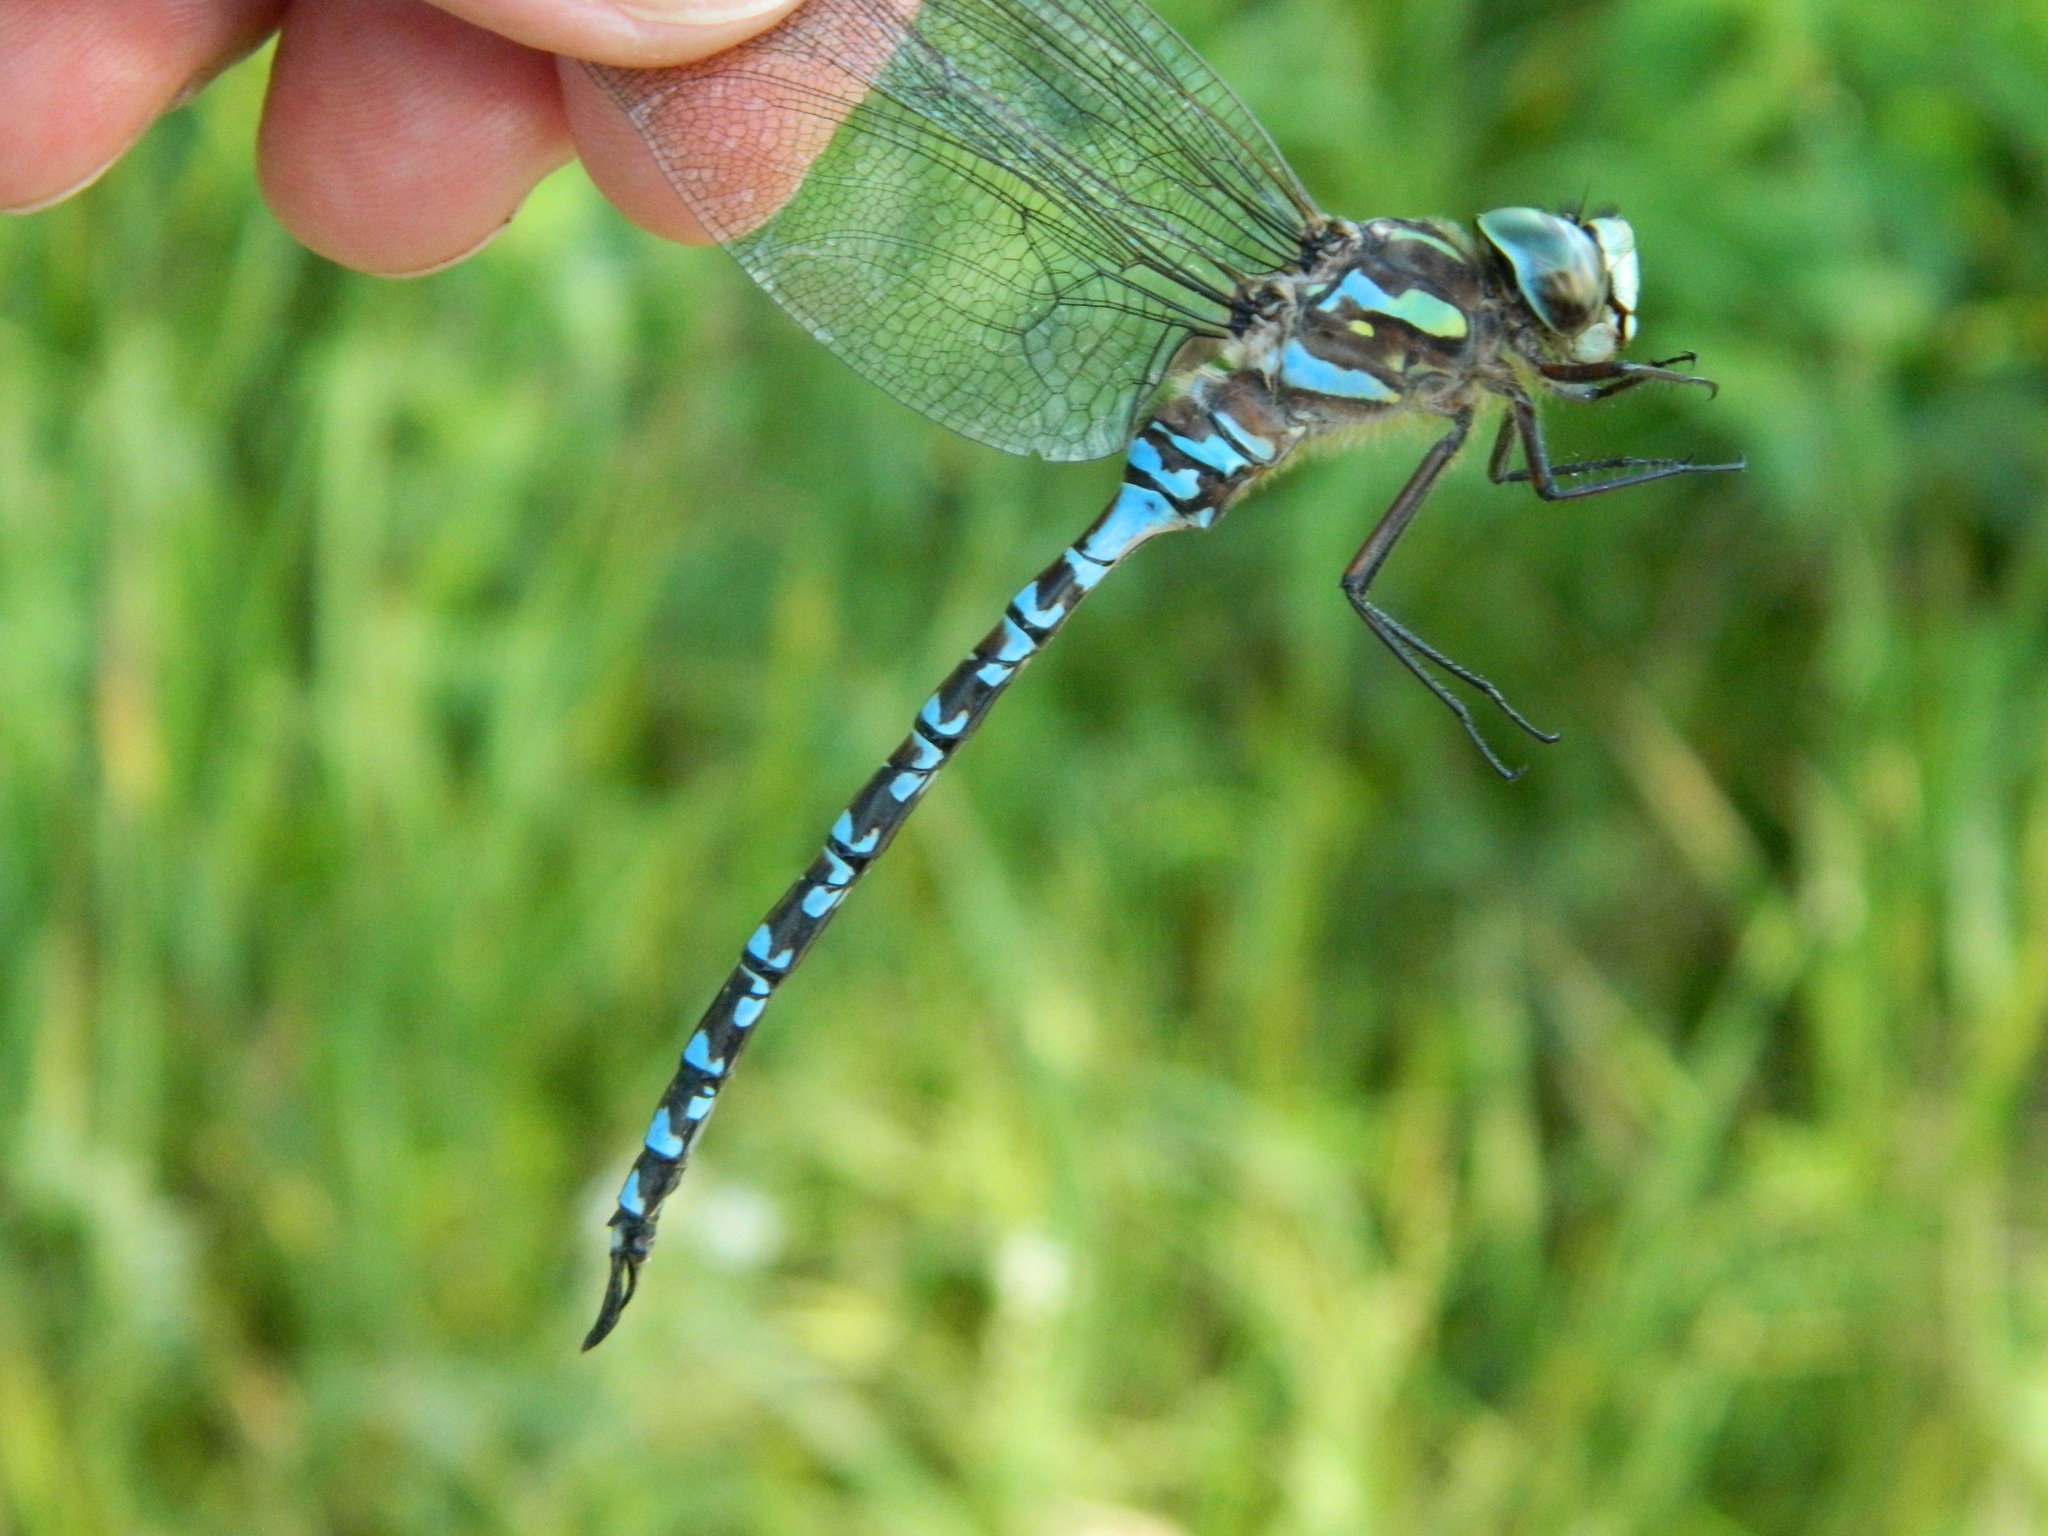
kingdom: Animalia
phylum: Arthropoda
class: Insecta
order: Odonata
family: Aeshnidae
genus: Aeshna
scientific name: Aeshna canadensis
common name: Canada darner
